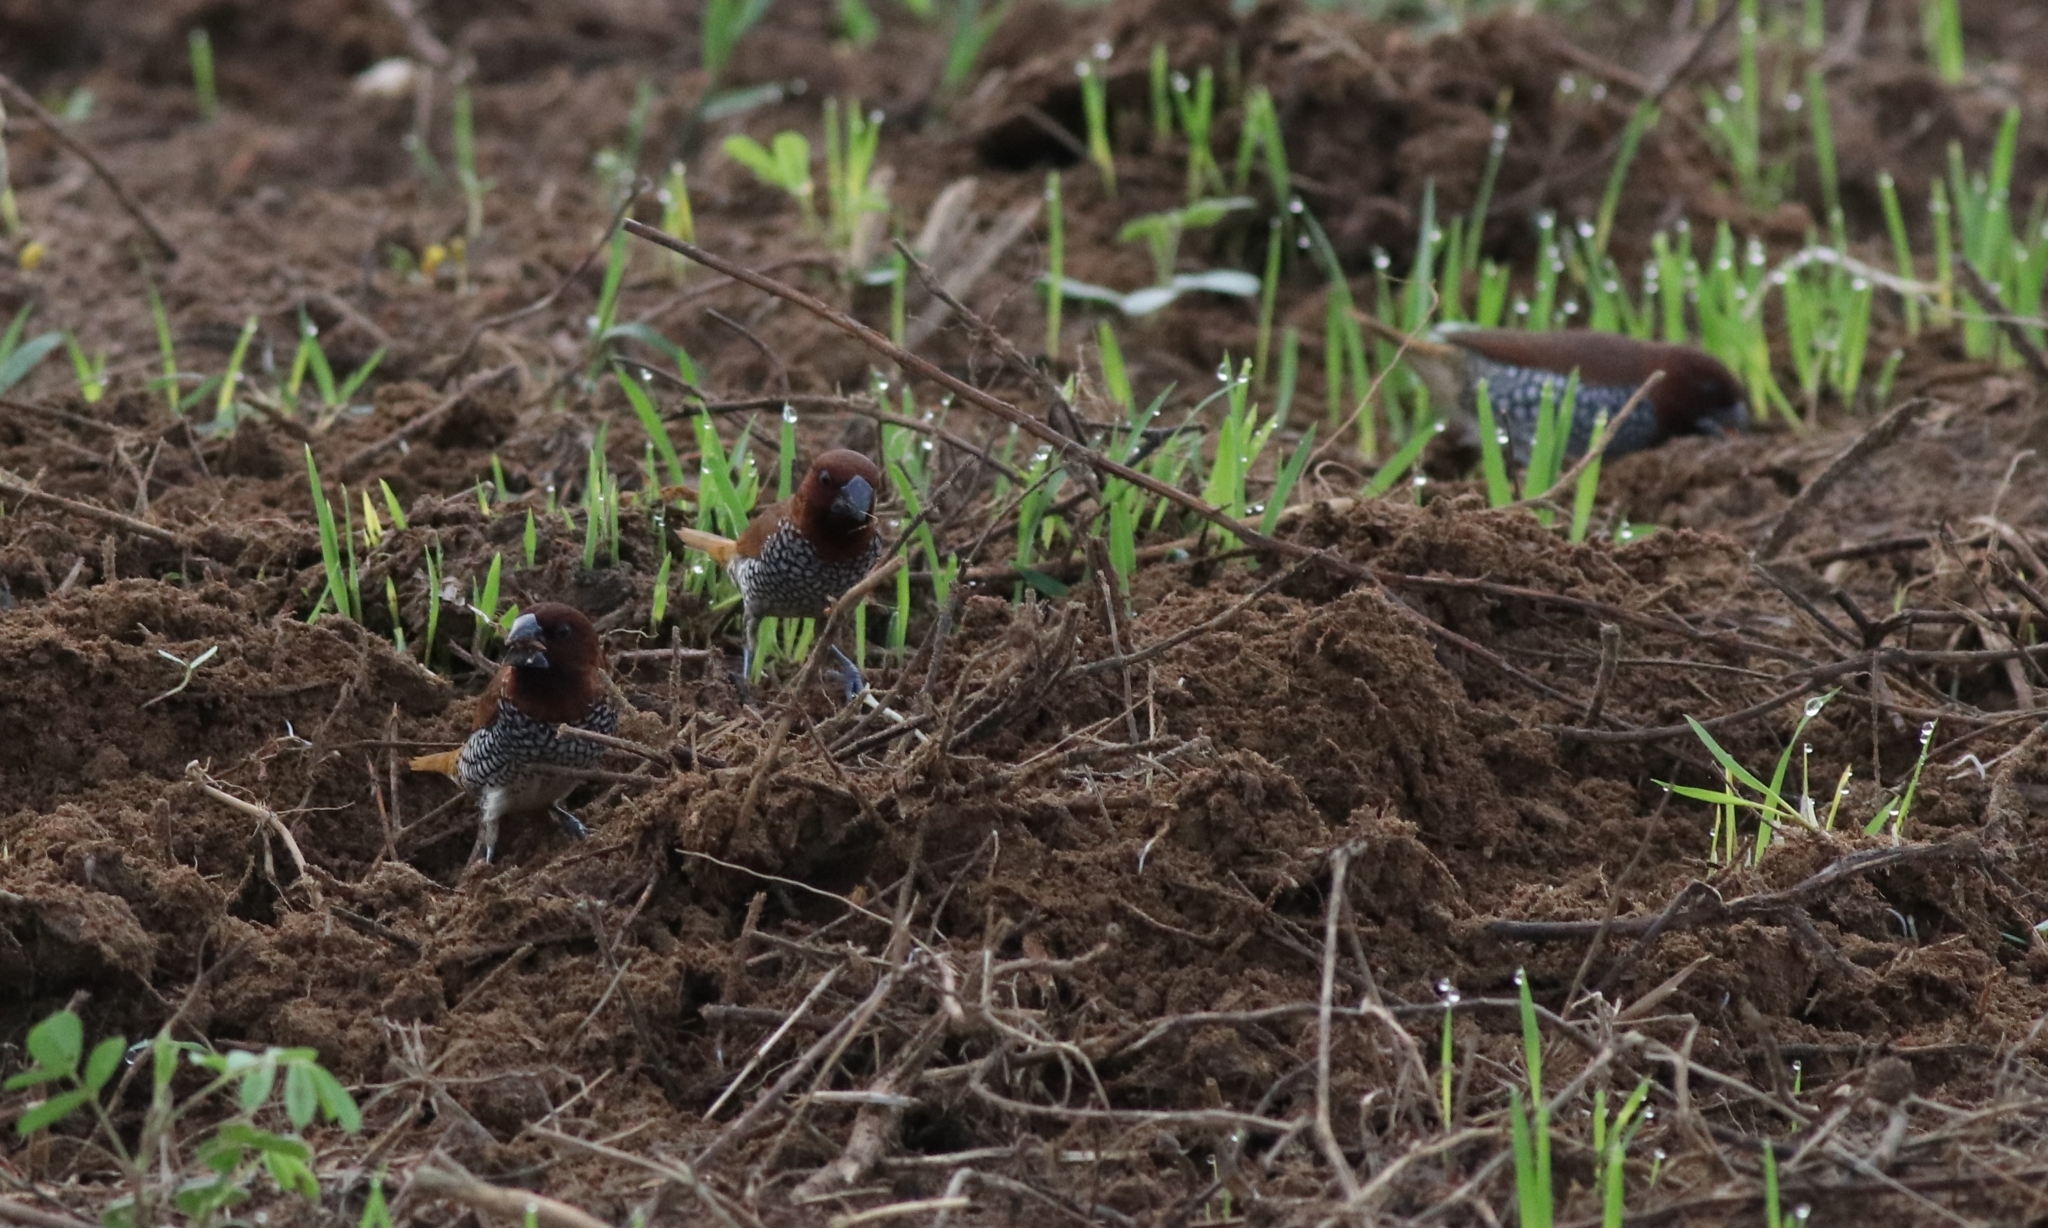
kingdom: Animalia
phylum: Chordata
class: Aves
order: Passeriformes
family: Estrildidae
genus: Lonchura
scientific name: Lonchura punctulata
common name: Scaly-breasted munia
